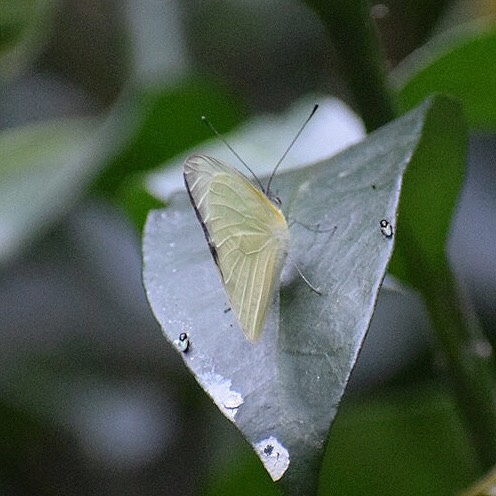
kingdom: Animalia
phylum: Arthropoda
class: Insecta
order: Lepidoptera
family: Pieridae
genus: Glutophrissa
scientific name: Glutophrissa epaphia
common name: African albatross
